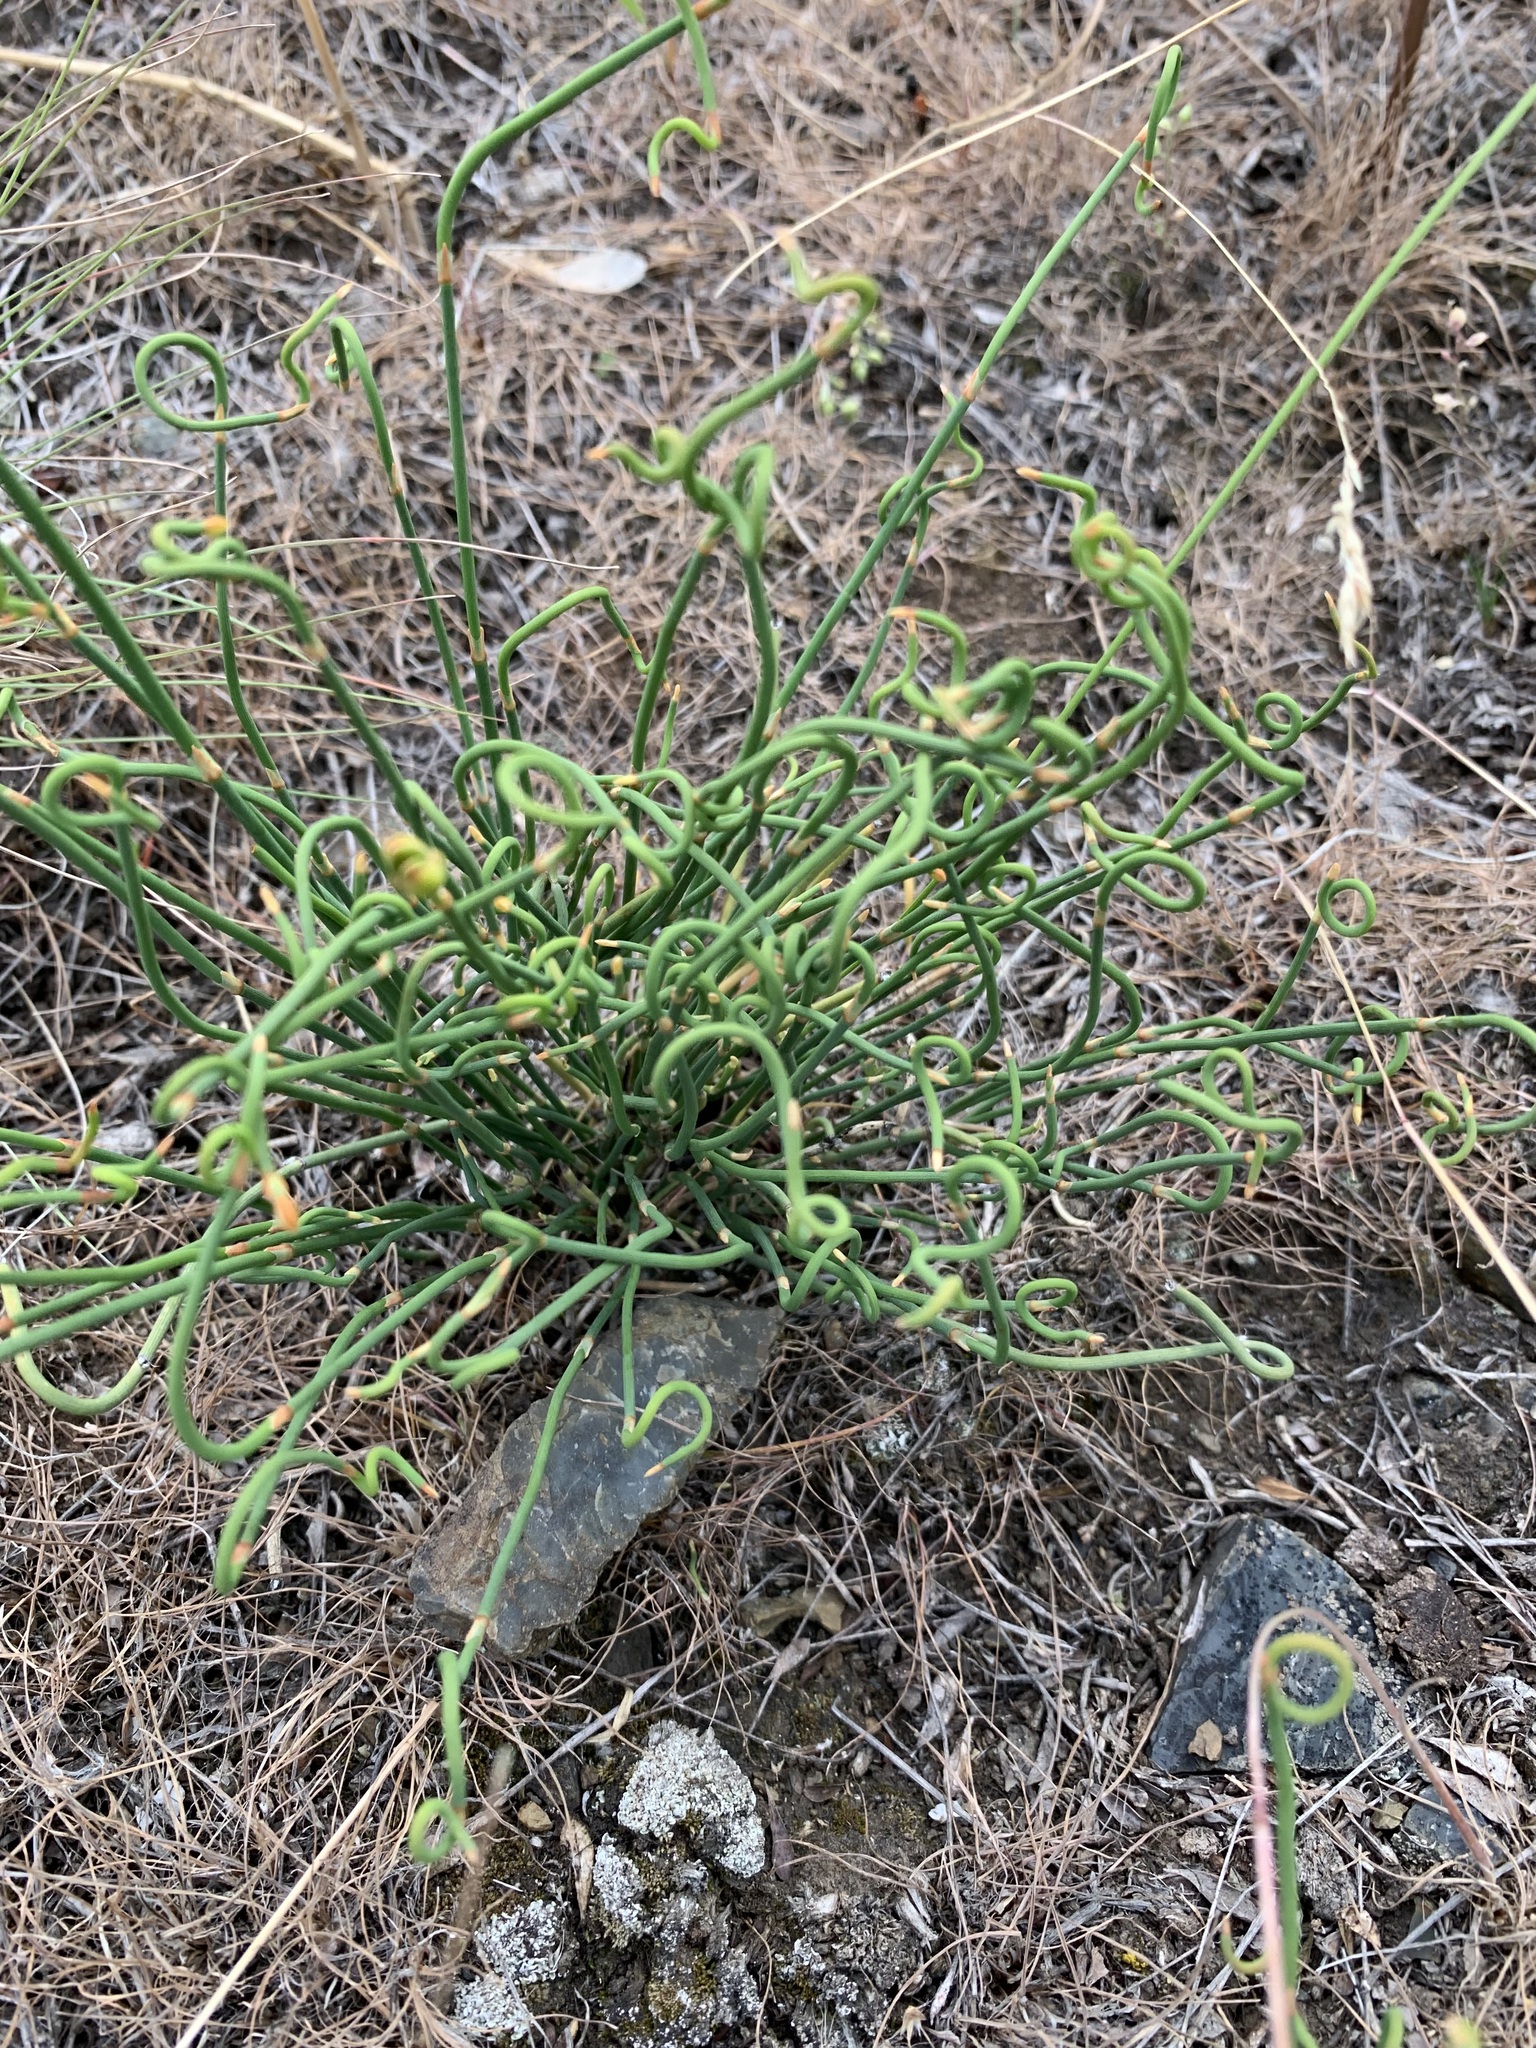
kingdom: Plantae
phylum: Tracheophyta
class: Gnetopsida
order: Ephedrales
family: Ephedraceae
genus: Ephedra
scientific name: Ephedra distachya
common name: Sea grape
